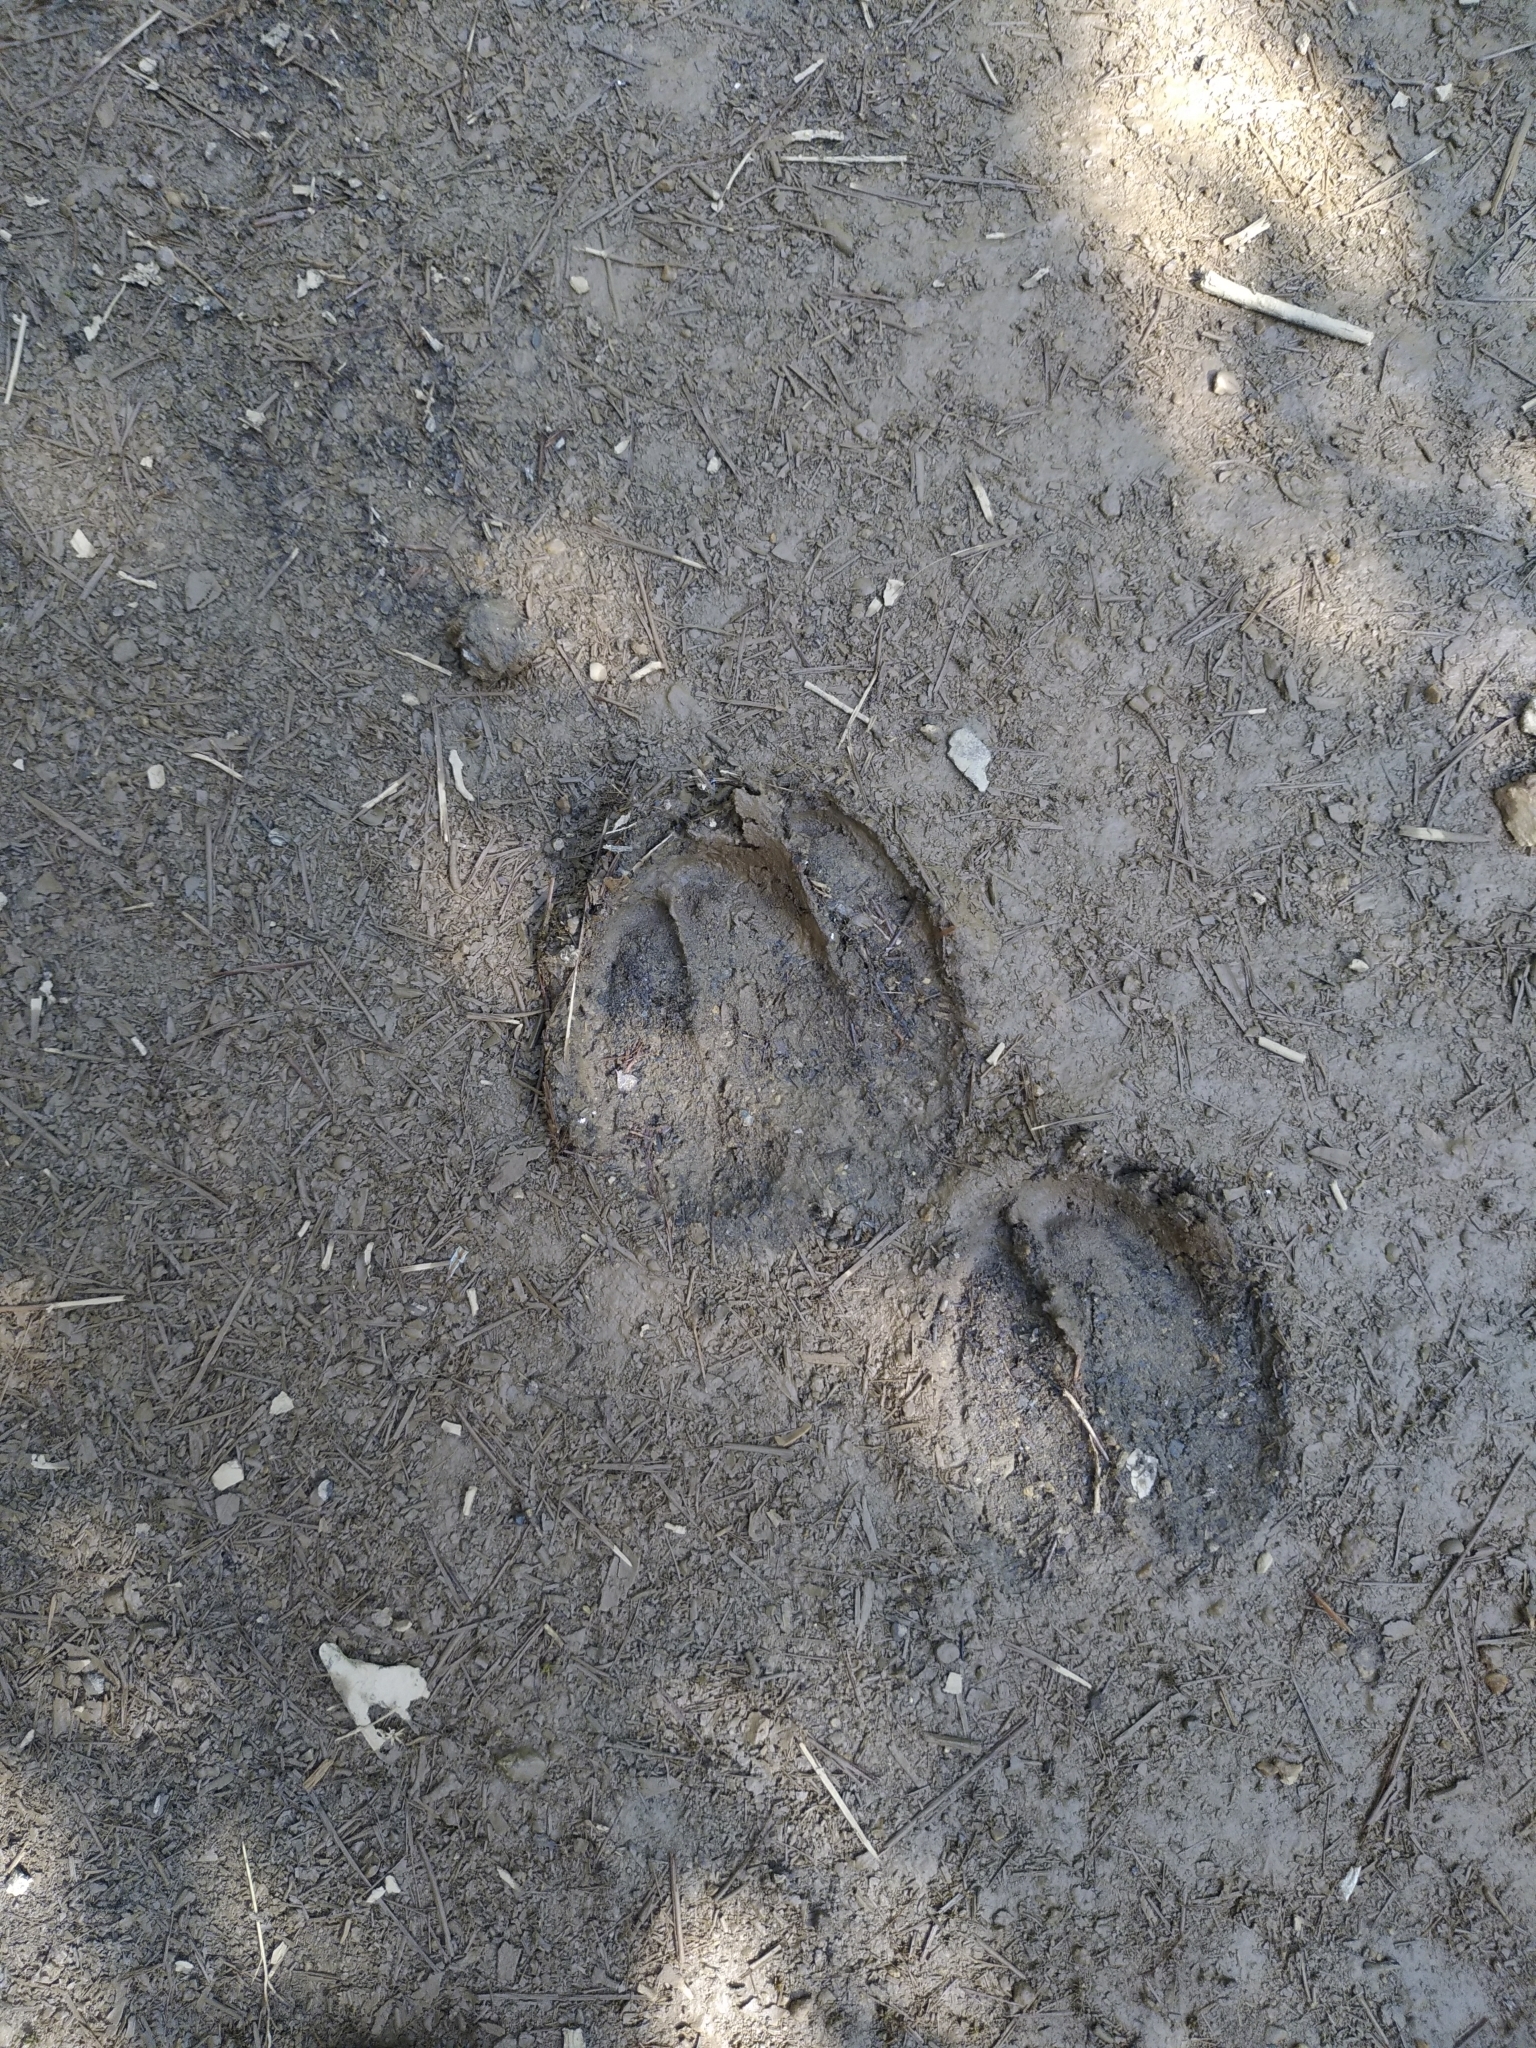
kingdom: Animalia
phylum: Chordata
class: Mammalia
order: Artiodactyla
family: Suidae
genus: Sus
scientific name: Sus scrofa
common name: Wild boar
